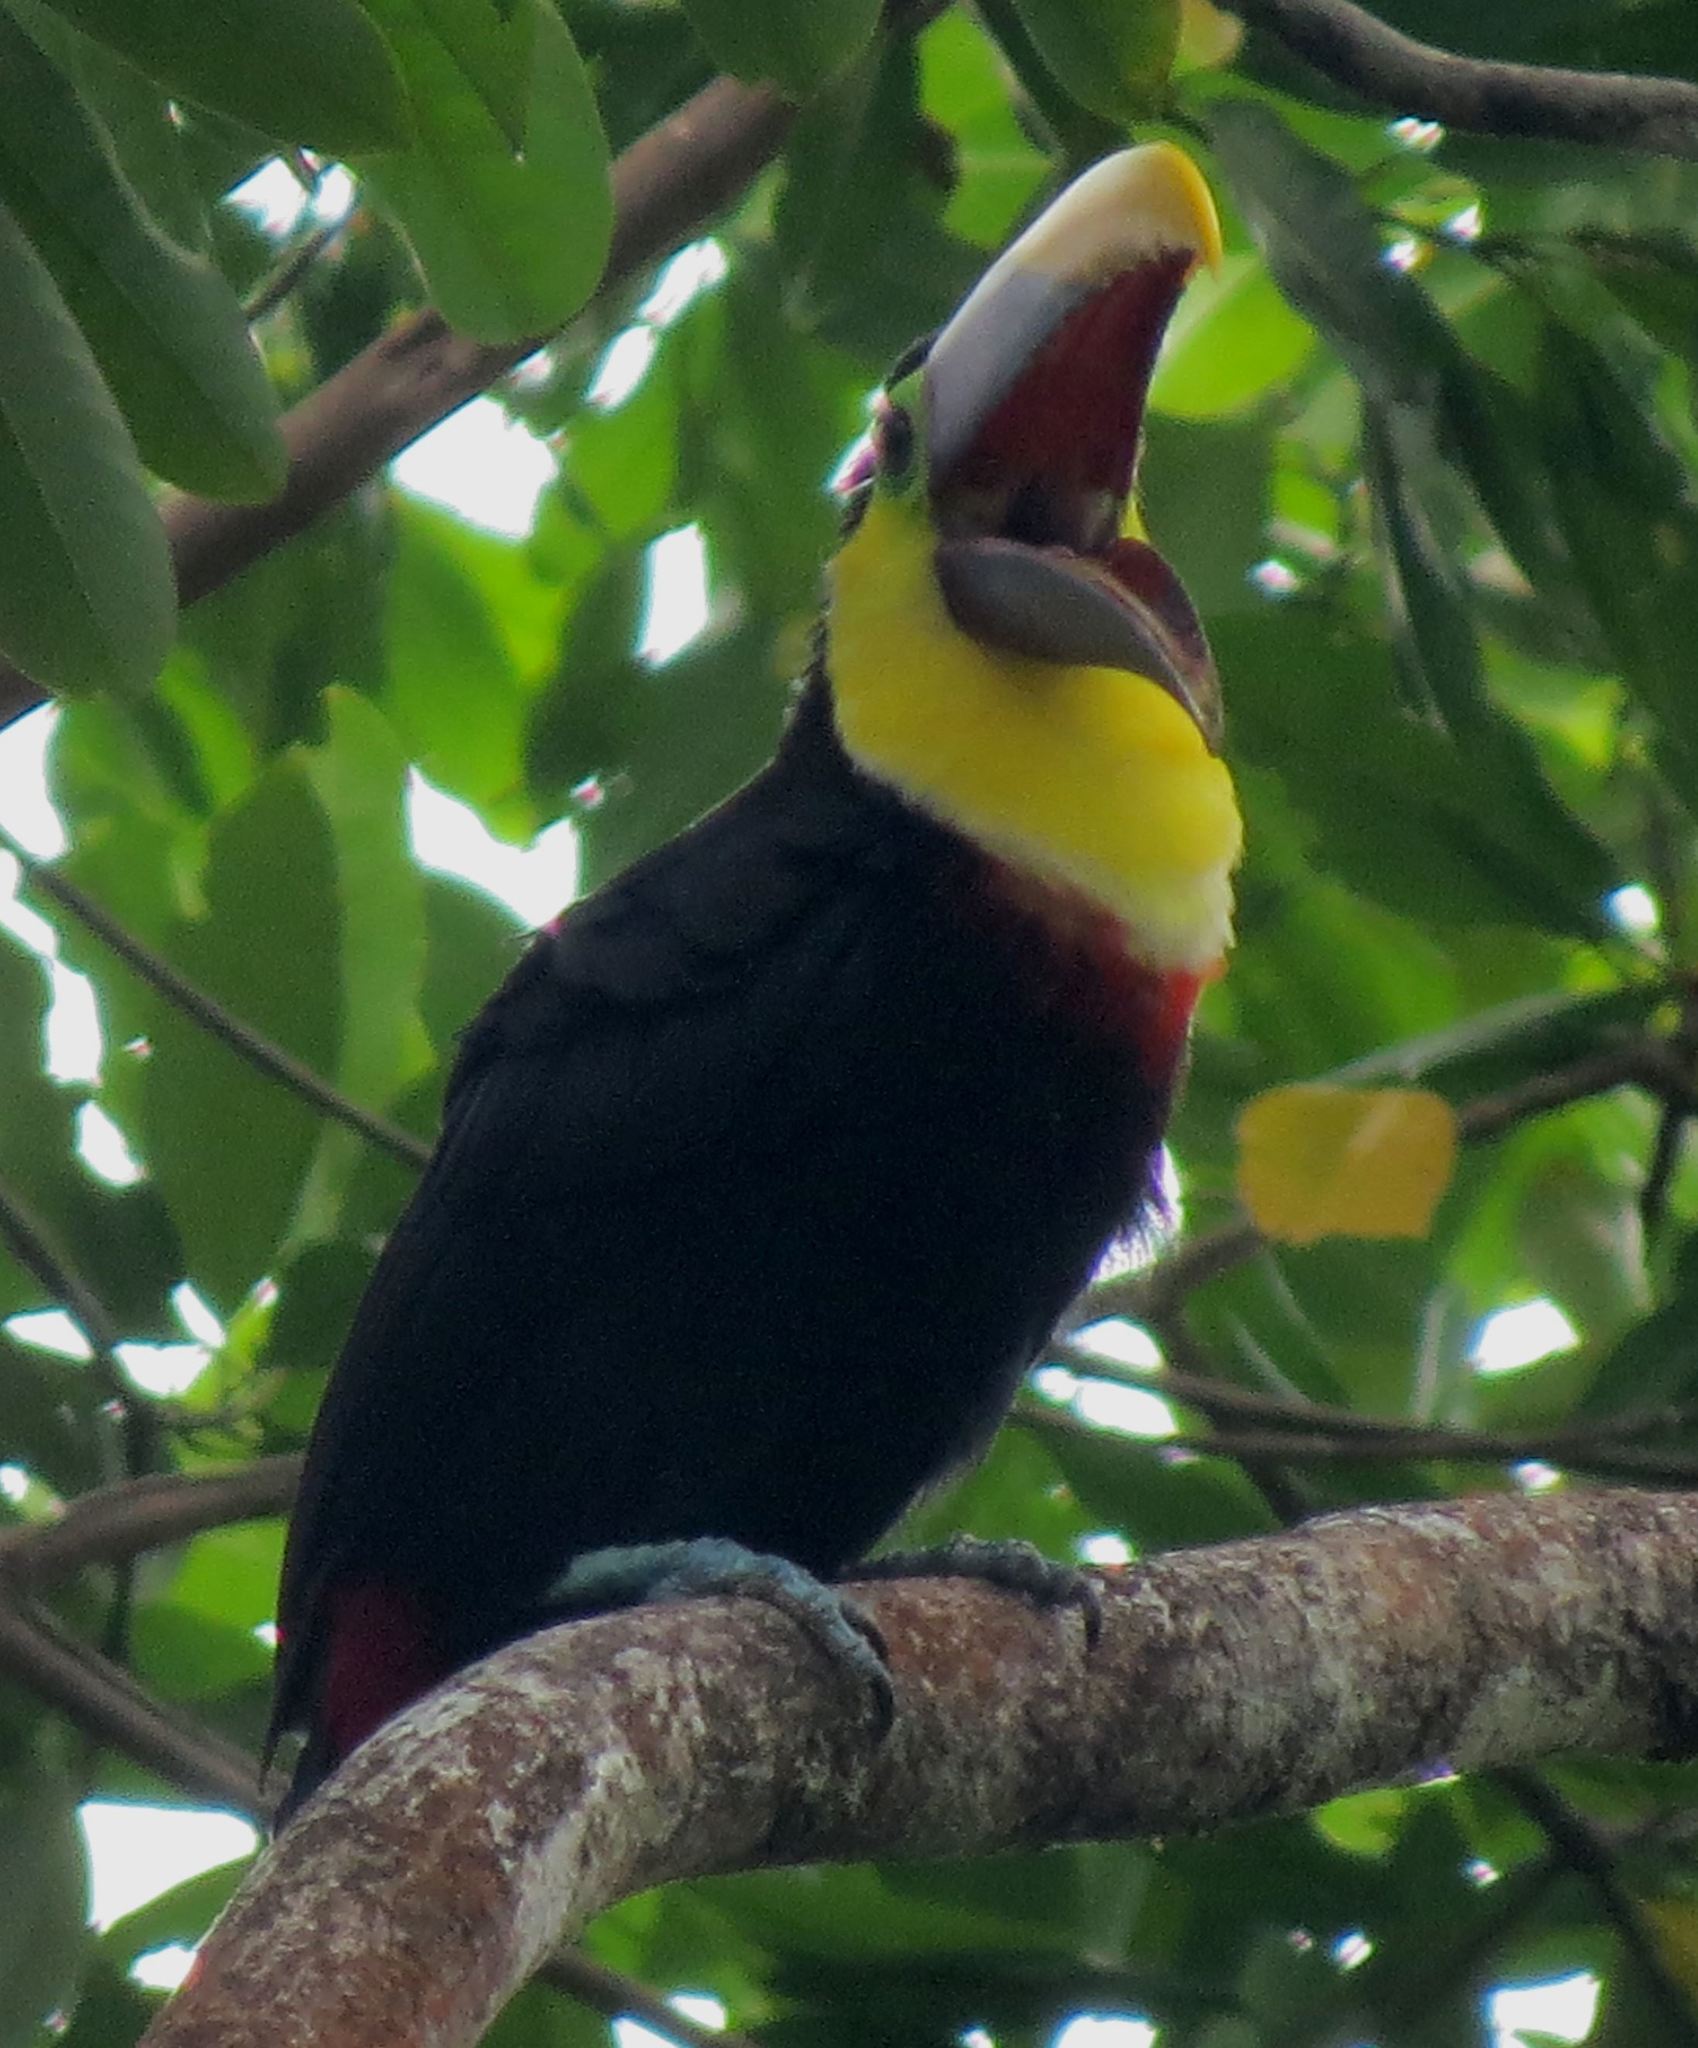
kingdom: Animalia
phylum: Chordata
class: Aves
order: Piciformes
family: Ramphastidae
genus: Ramphastos
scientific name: Ramphastos ambiguus
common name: Yellow-throated toucan
